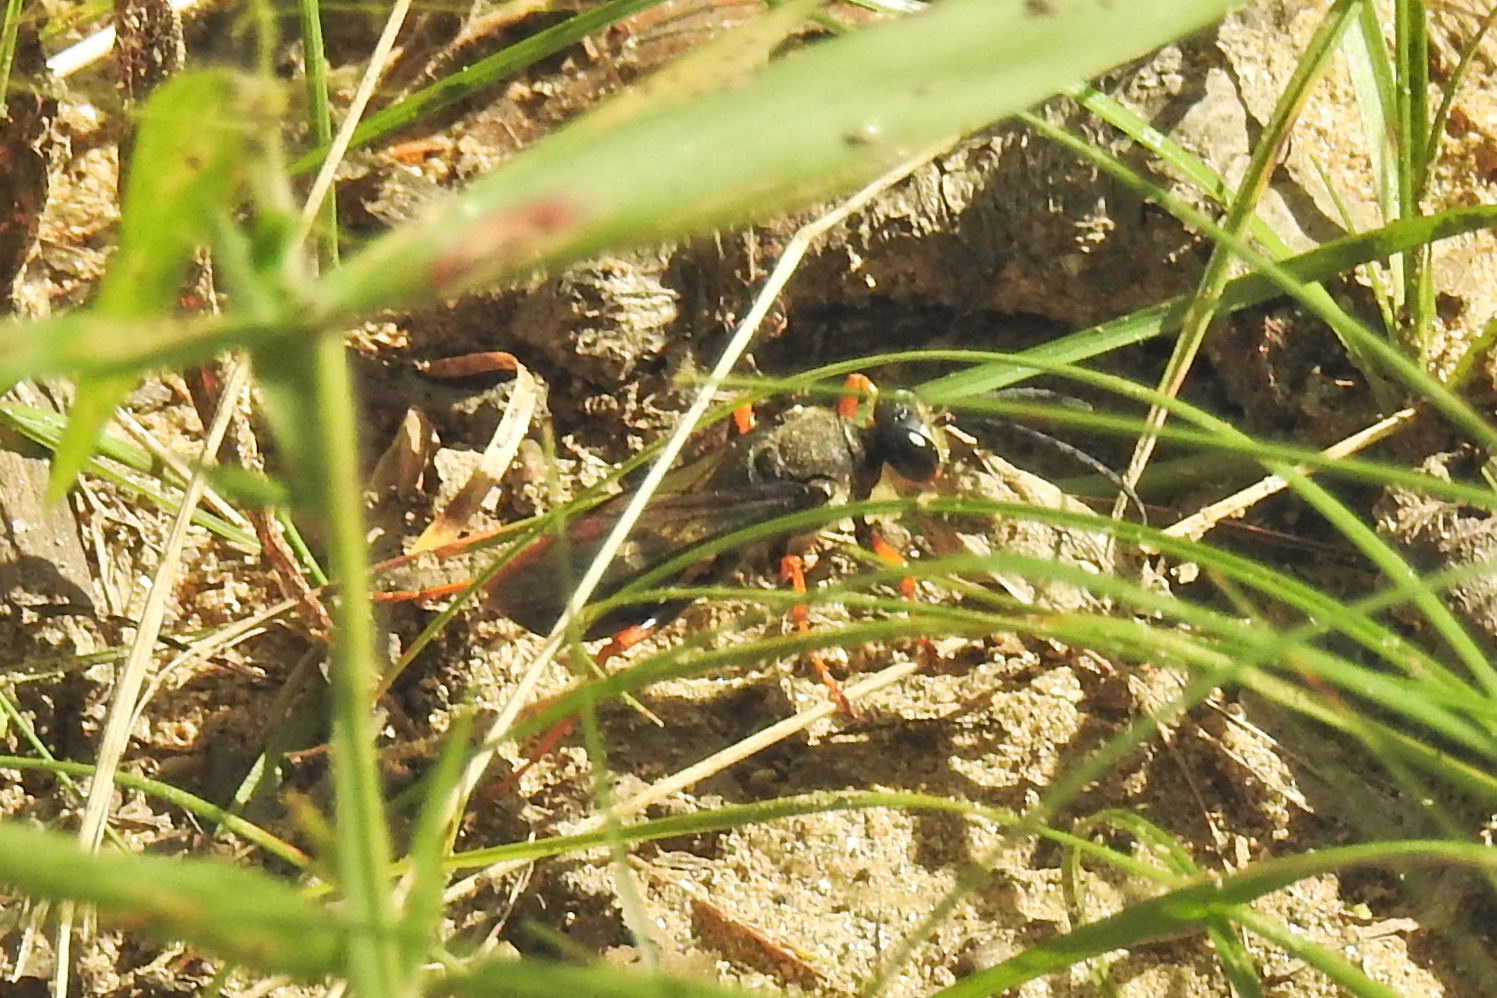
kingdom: Animalia
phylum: Arthropoda
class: Insecta
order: Hymenoptera
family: Sphecidae
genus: Sphex
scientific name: Sphex nudus
